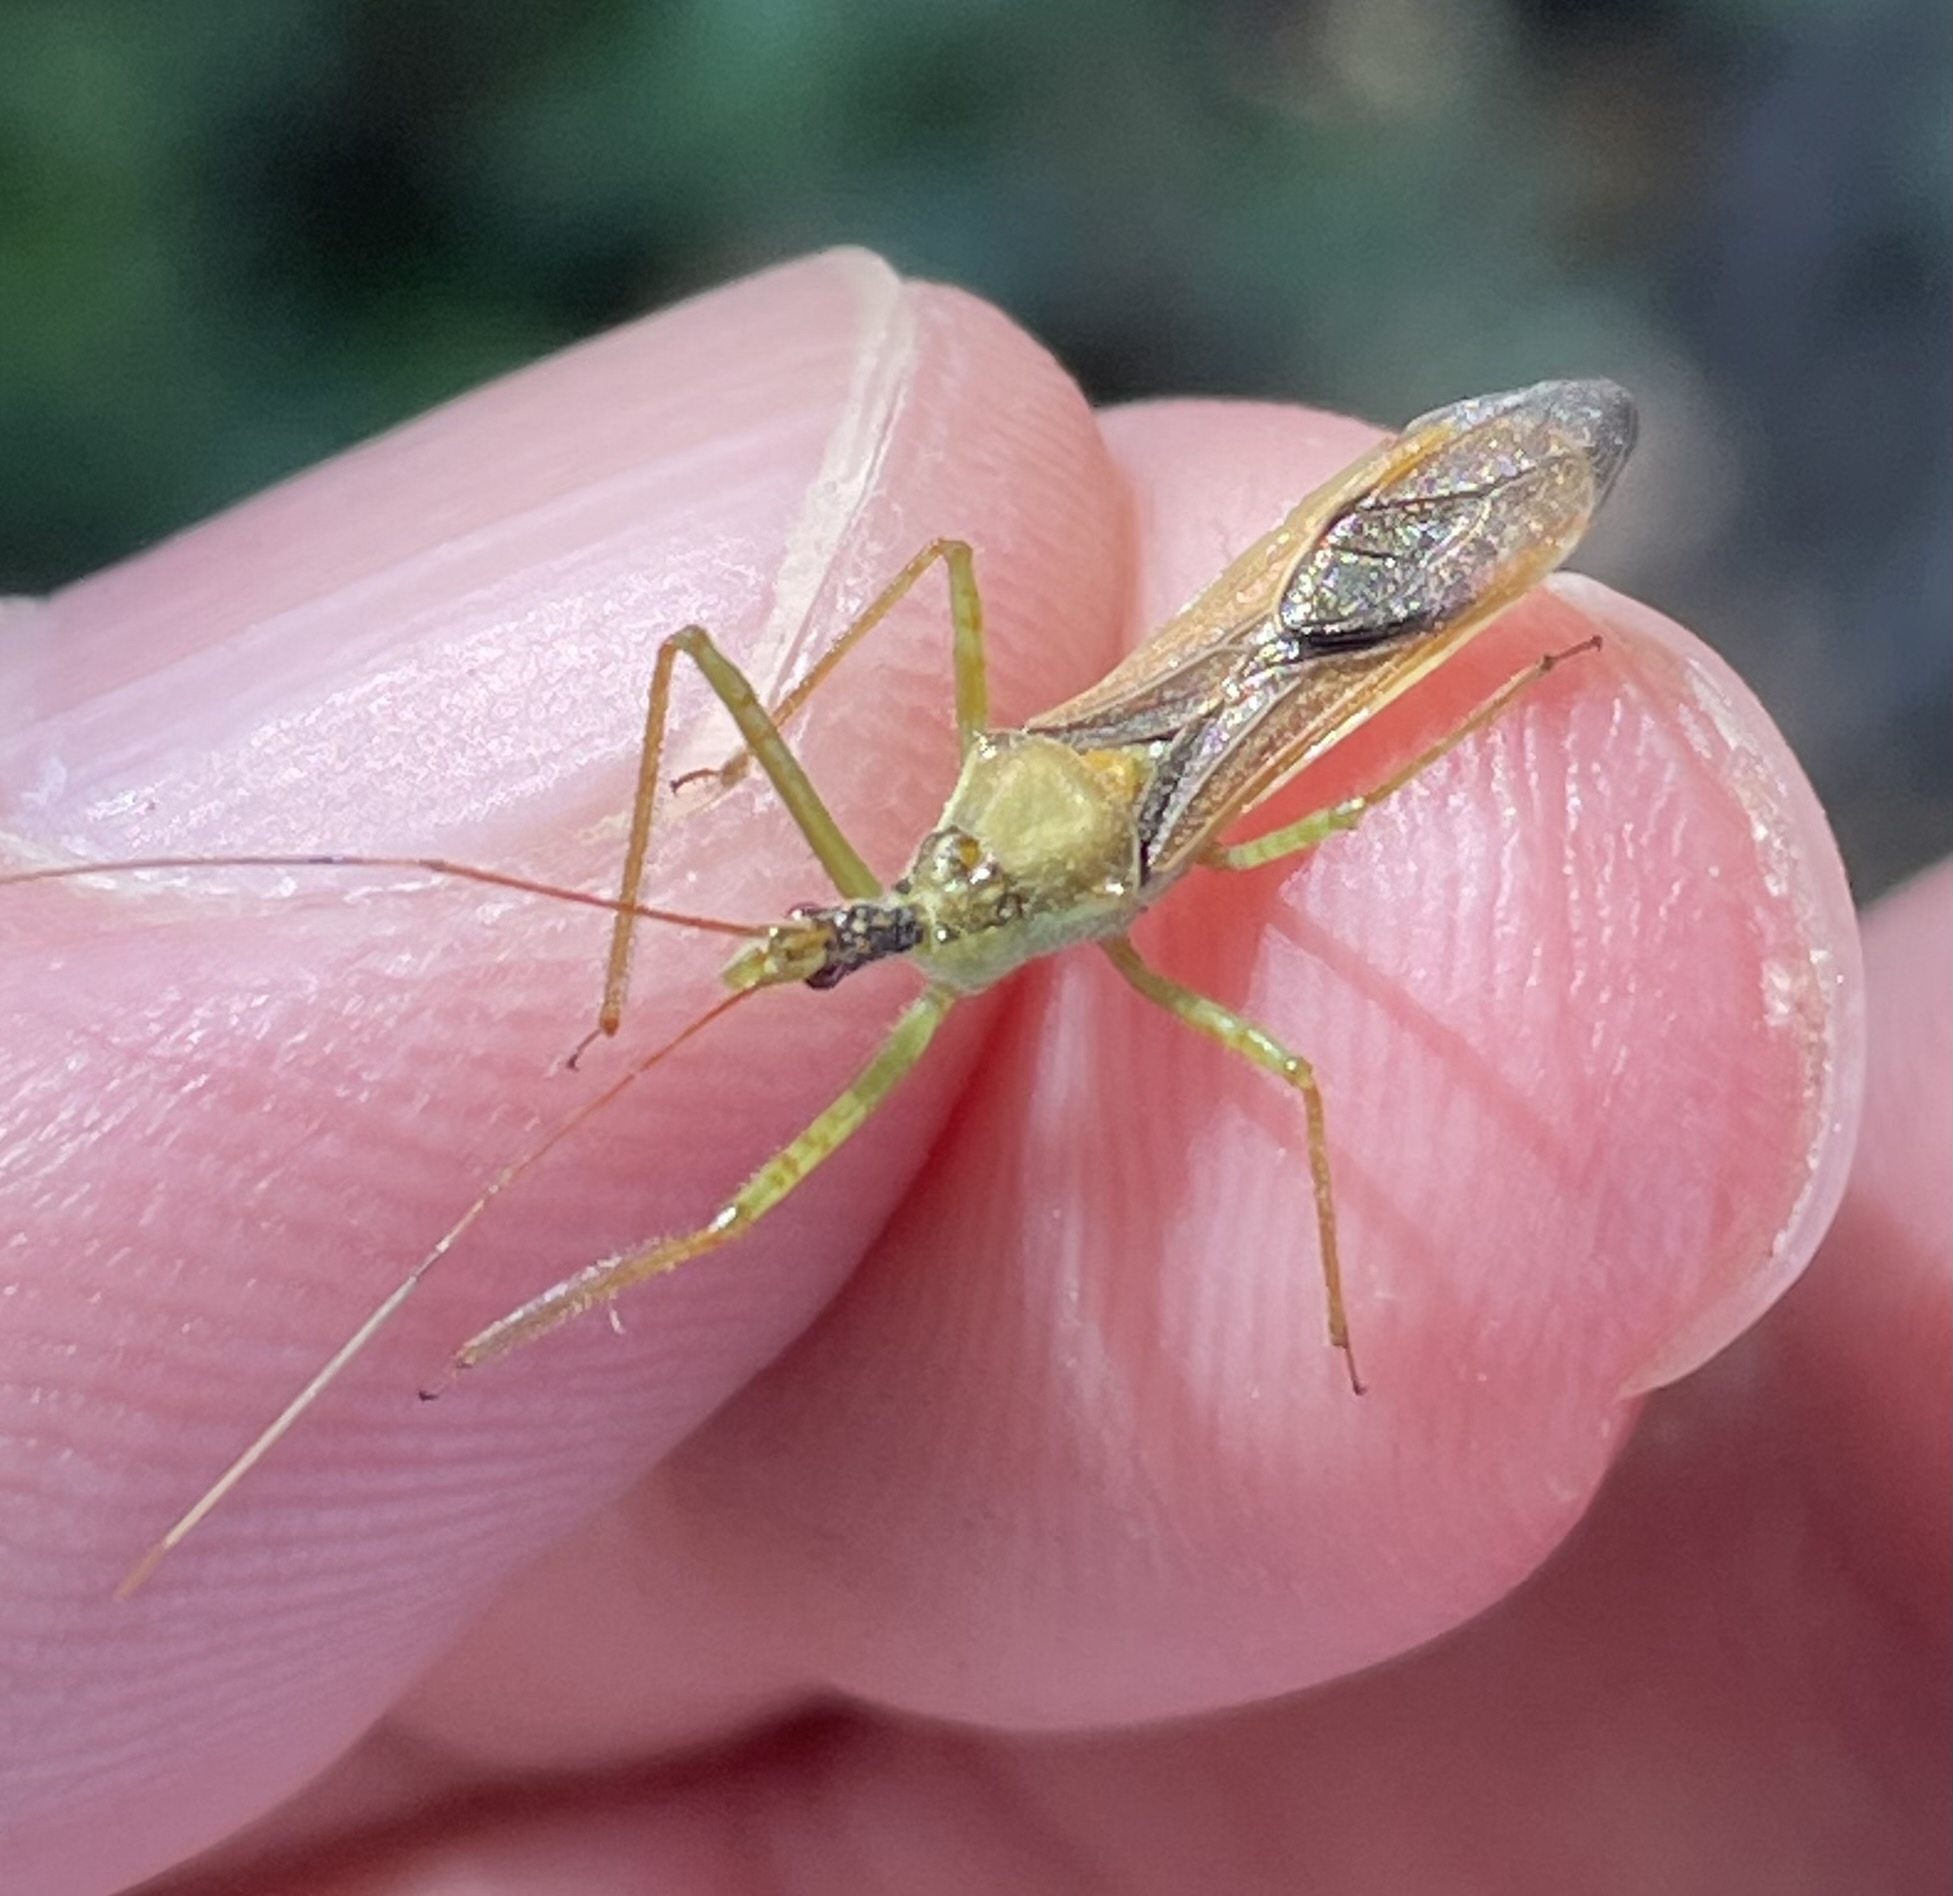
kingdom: Animalia
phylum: Arthropoda
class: Insecta
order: Hemiptera
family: Reduviidae
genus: Zelus
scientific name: Zelus renardii
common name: Assassin bug
